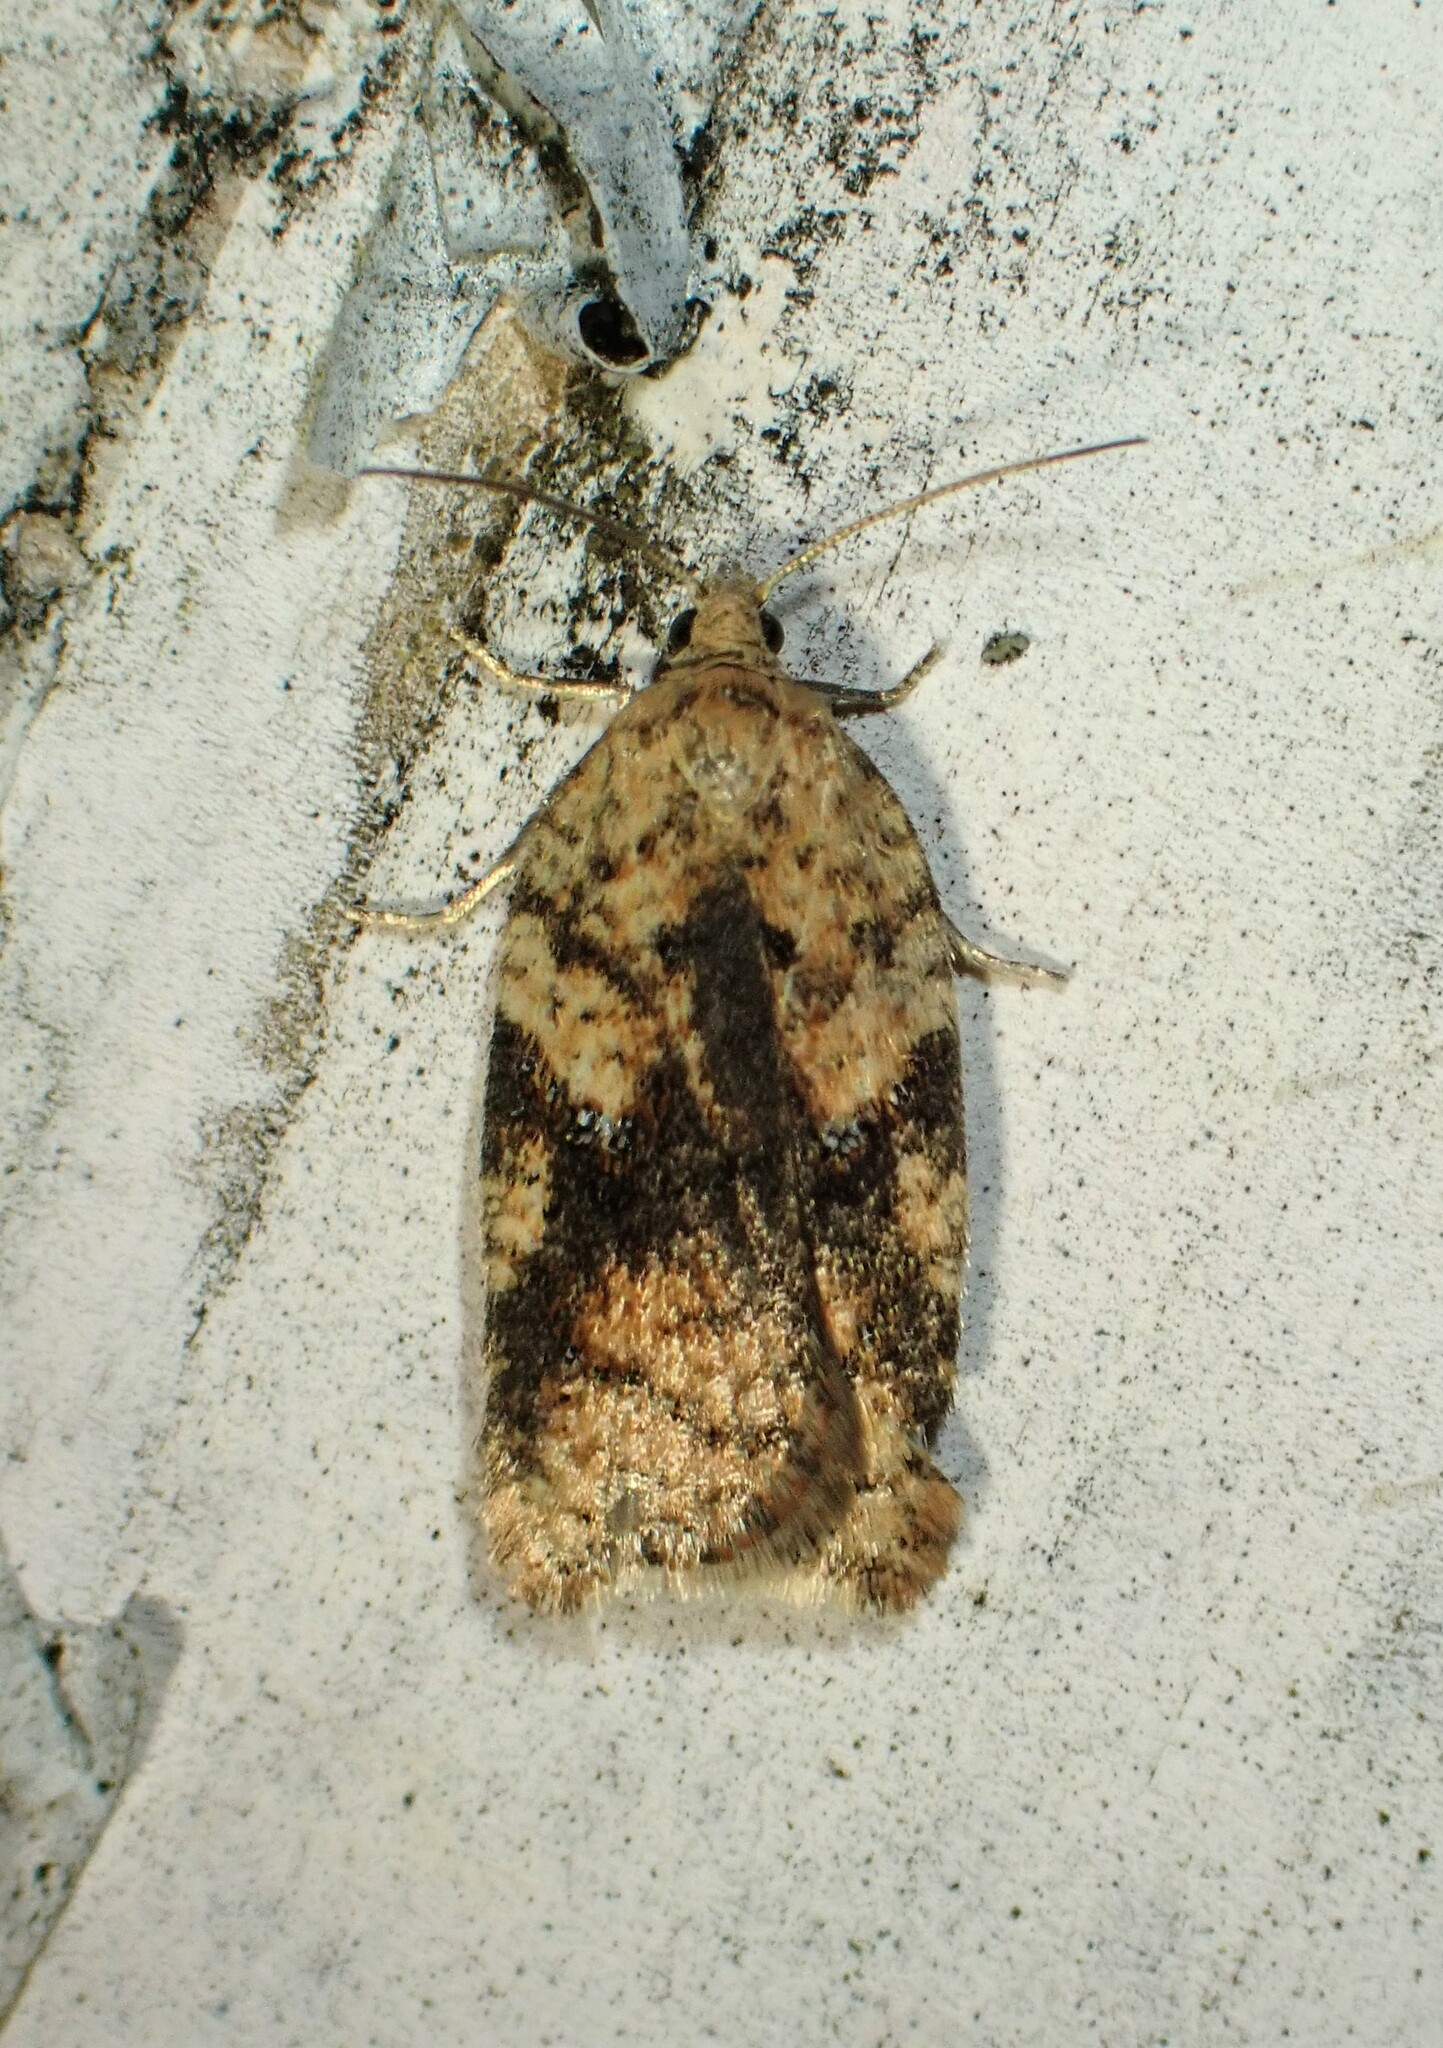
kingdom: Animalia
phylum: Arthropoda
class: Insecta
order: Lepidoptera
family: Tortricidae
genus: Acleris
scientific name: Acleris stadiana
